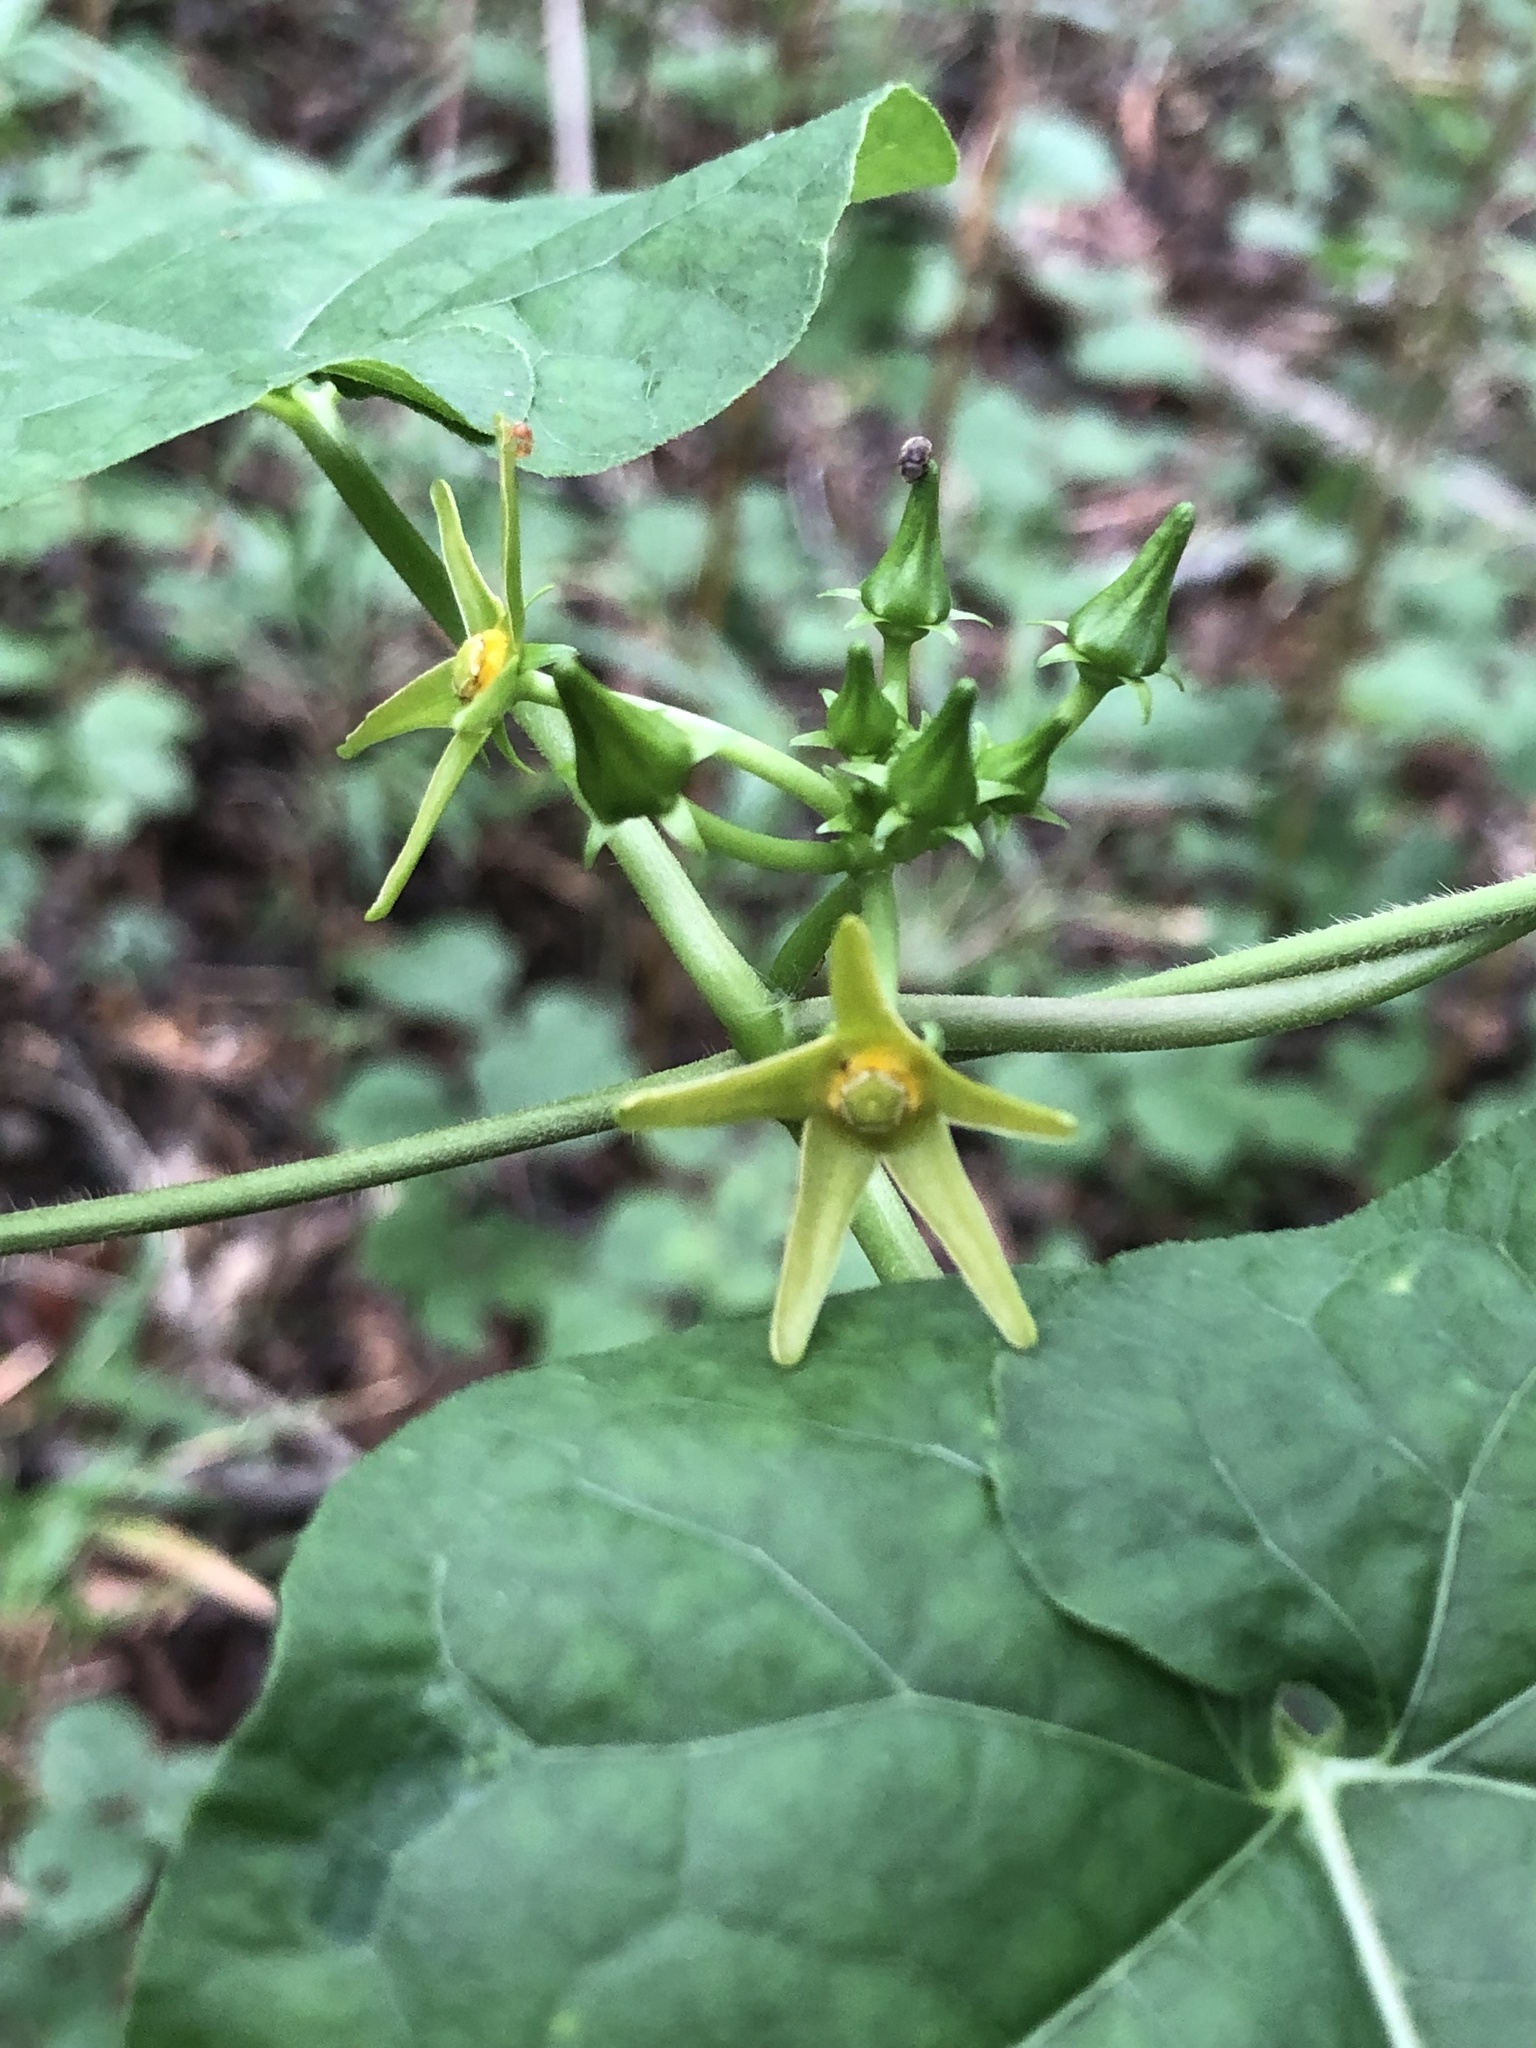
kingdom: Plantae
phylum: Tracheophyta
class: Magnoliopsida
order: Gentianales
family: Apocynaceae
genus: Gonolobus
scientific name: Gonolobus suberosus
